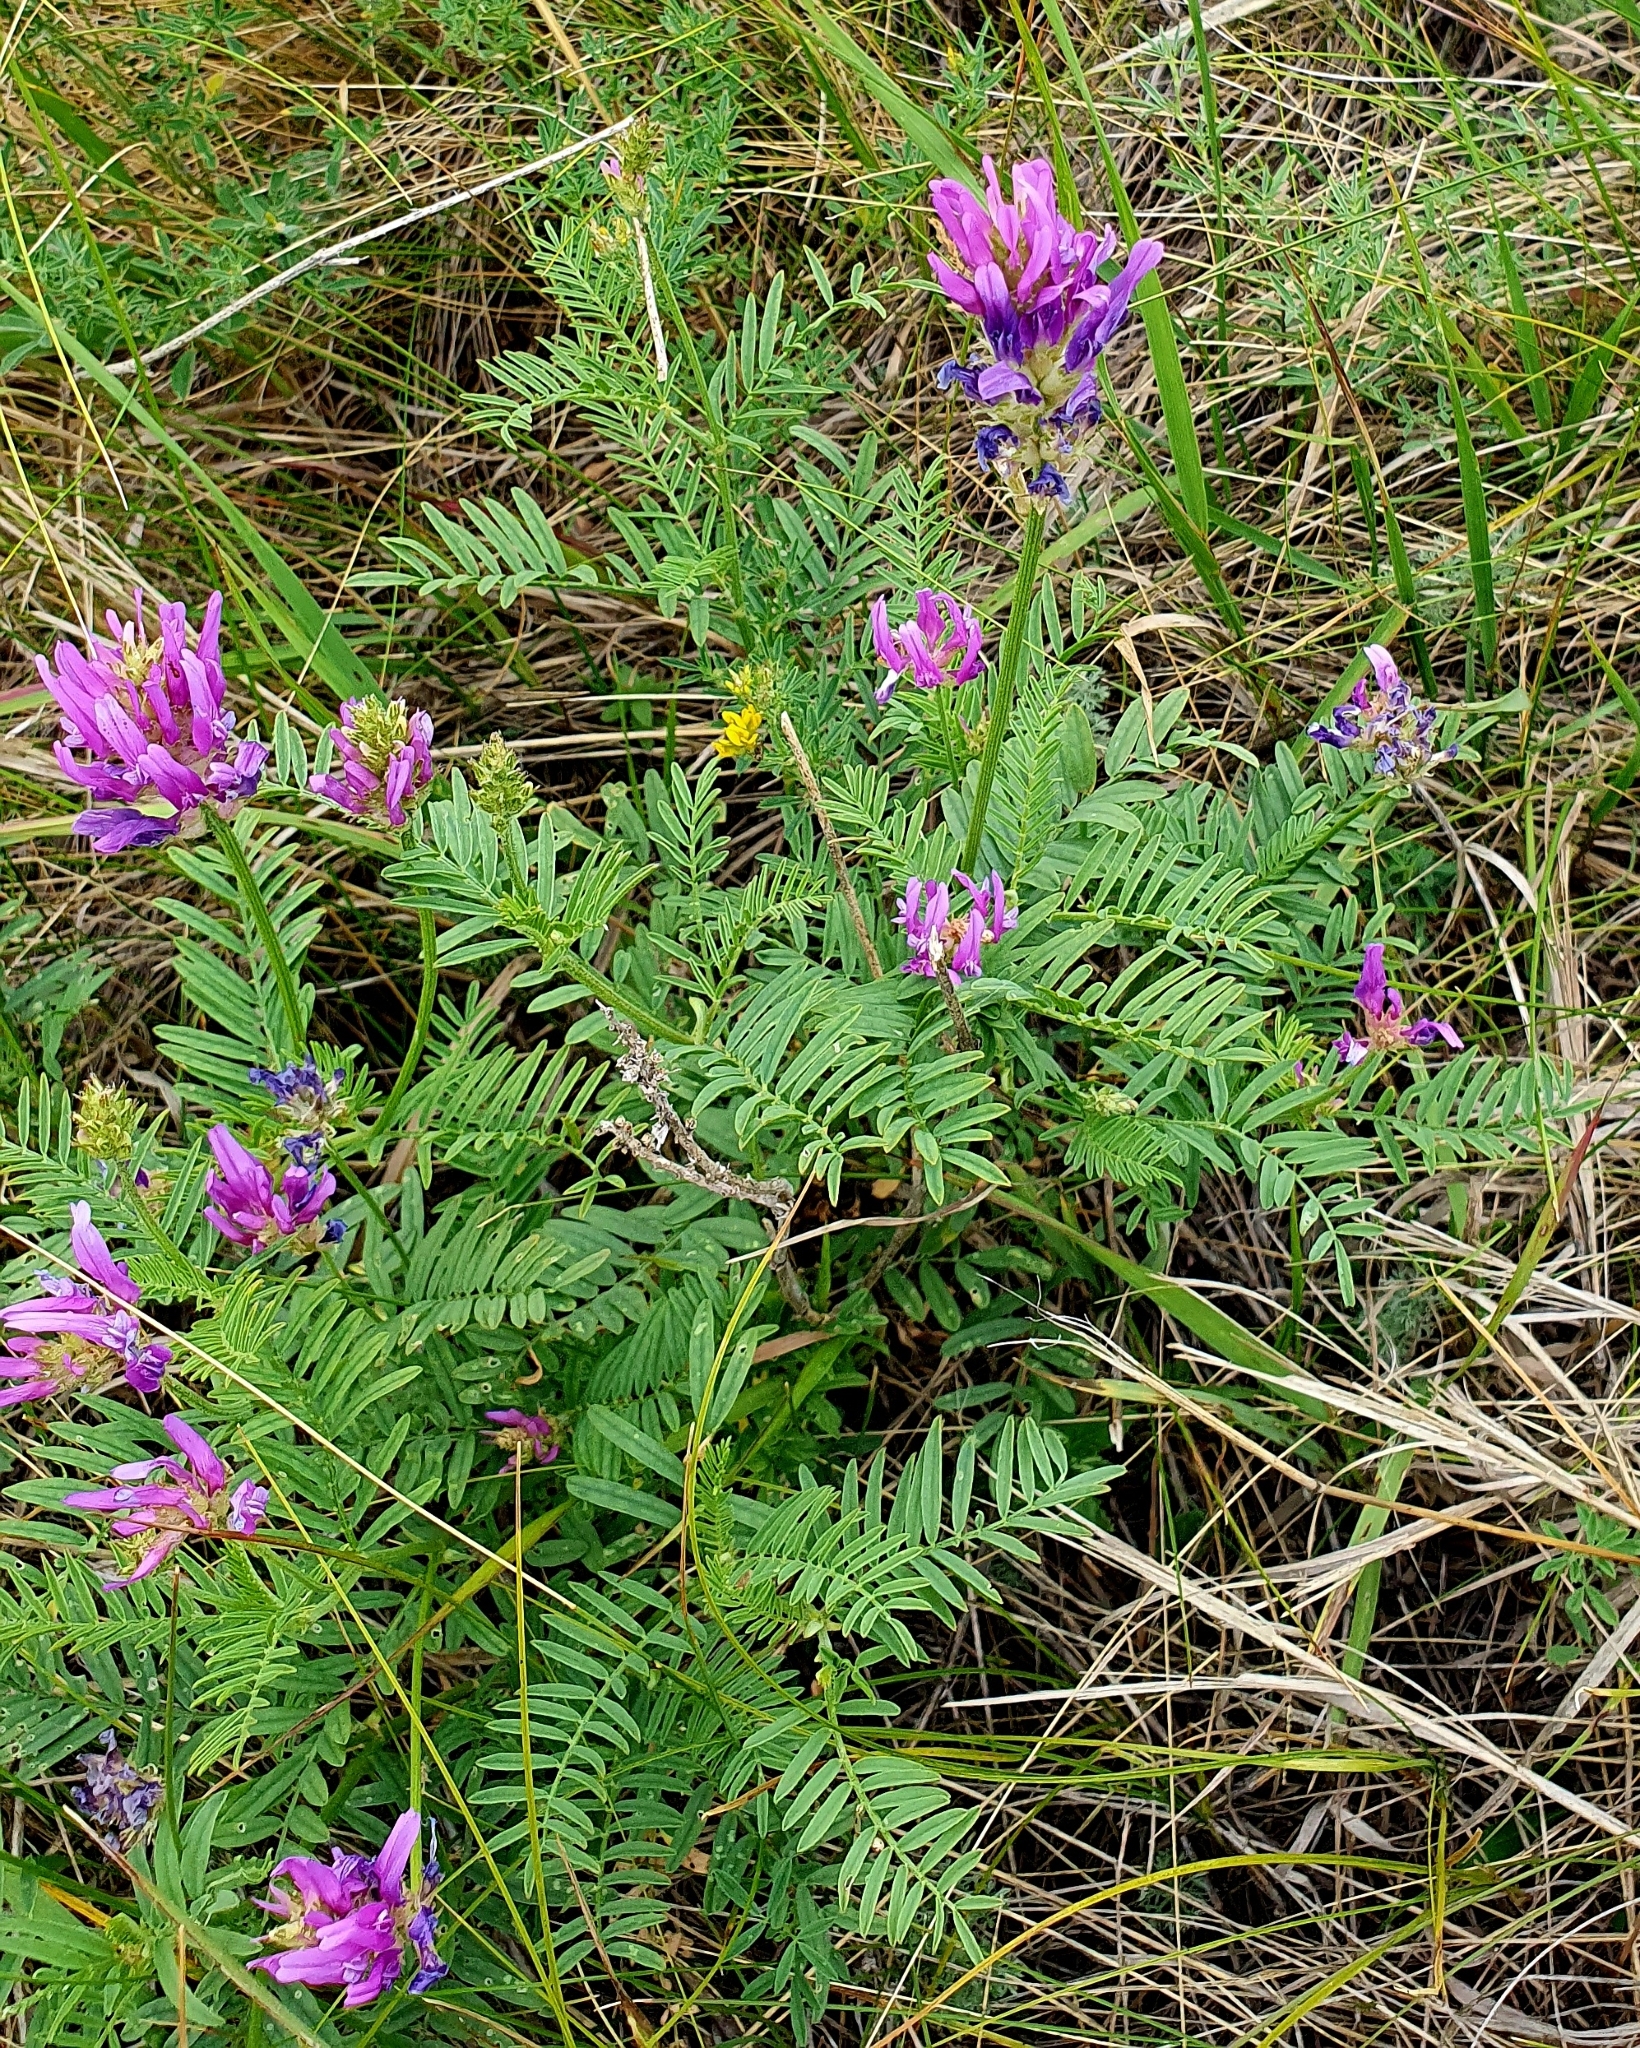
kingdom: Plantae
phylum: Tracheophyta
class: Magnoliopsida
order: Fabales
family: Fabaceae
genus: Astragalus
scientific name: Astragalus onobrychis
